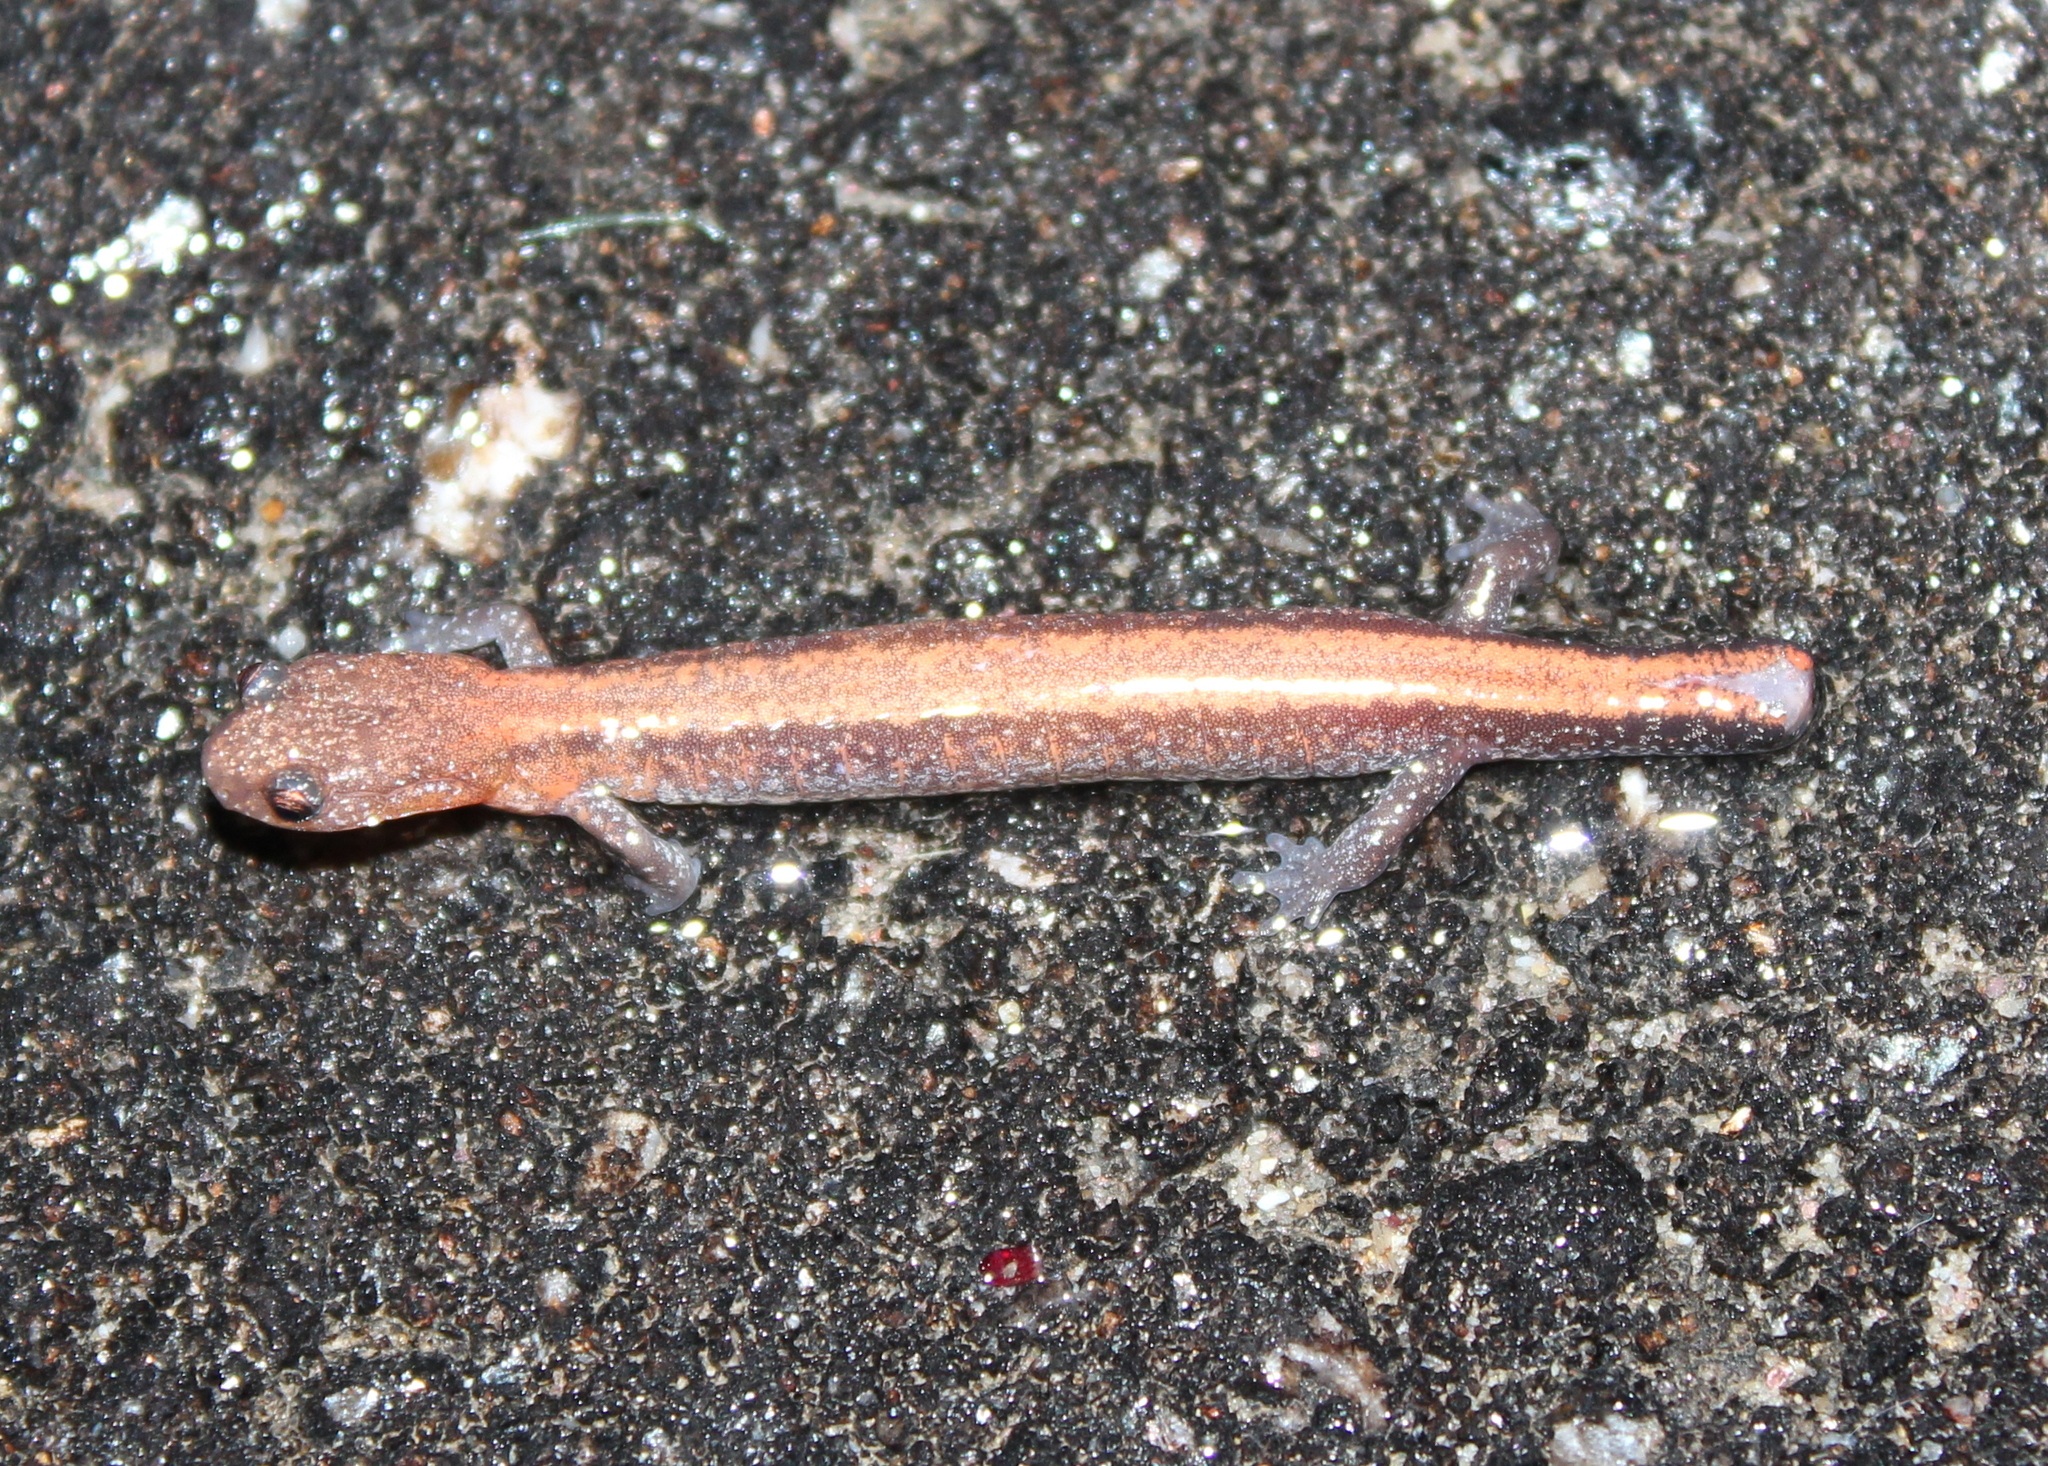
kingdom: Animalia
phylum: Chordata
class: Amphibia
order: Caudata
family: Plethodontidae
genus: Plethodon
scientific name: Plethodon cinereus
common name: Redback salamander
